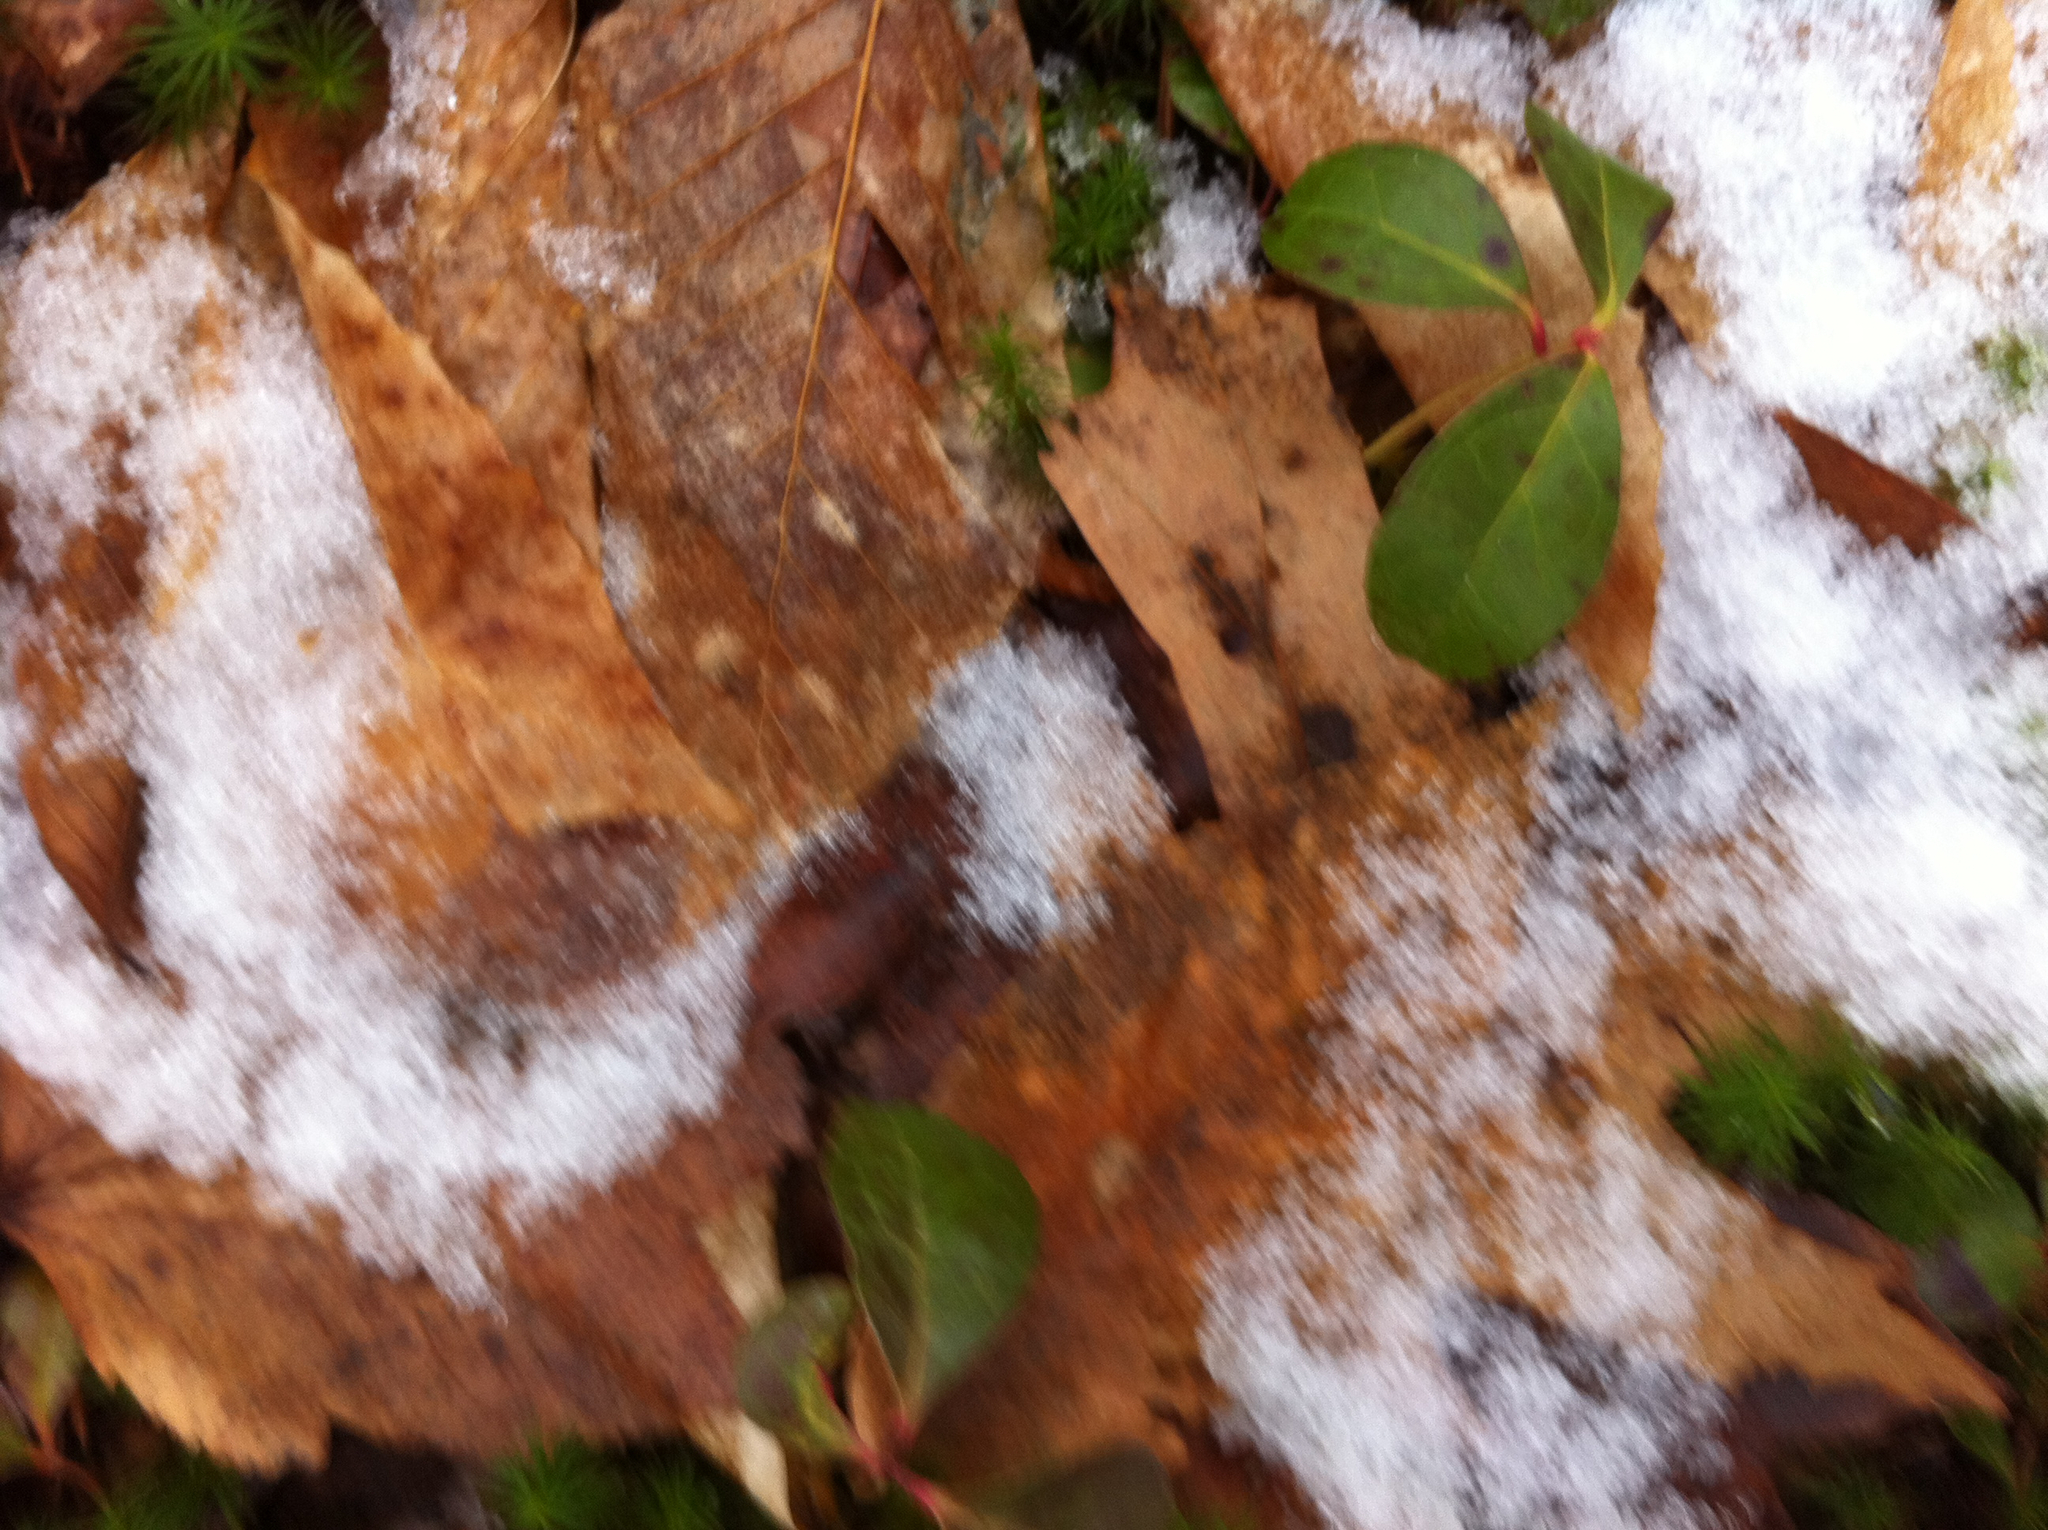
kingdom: Plantae
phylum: Tracheophyta
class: Magnoliopsida
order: Ericales
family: Ericaceae
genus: Gaultheria
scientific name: Gaultheria procumbens
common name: Checkerberry
